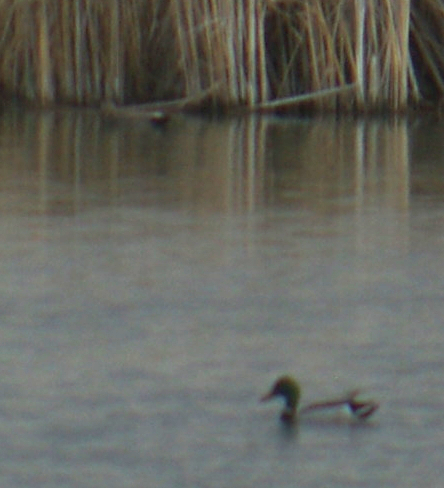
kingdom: Animalia
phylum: Chordata
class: Aves
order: Anseriformes
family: Anatidae
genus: Anas
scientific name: Anas platyrhynchos
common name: Mallard
